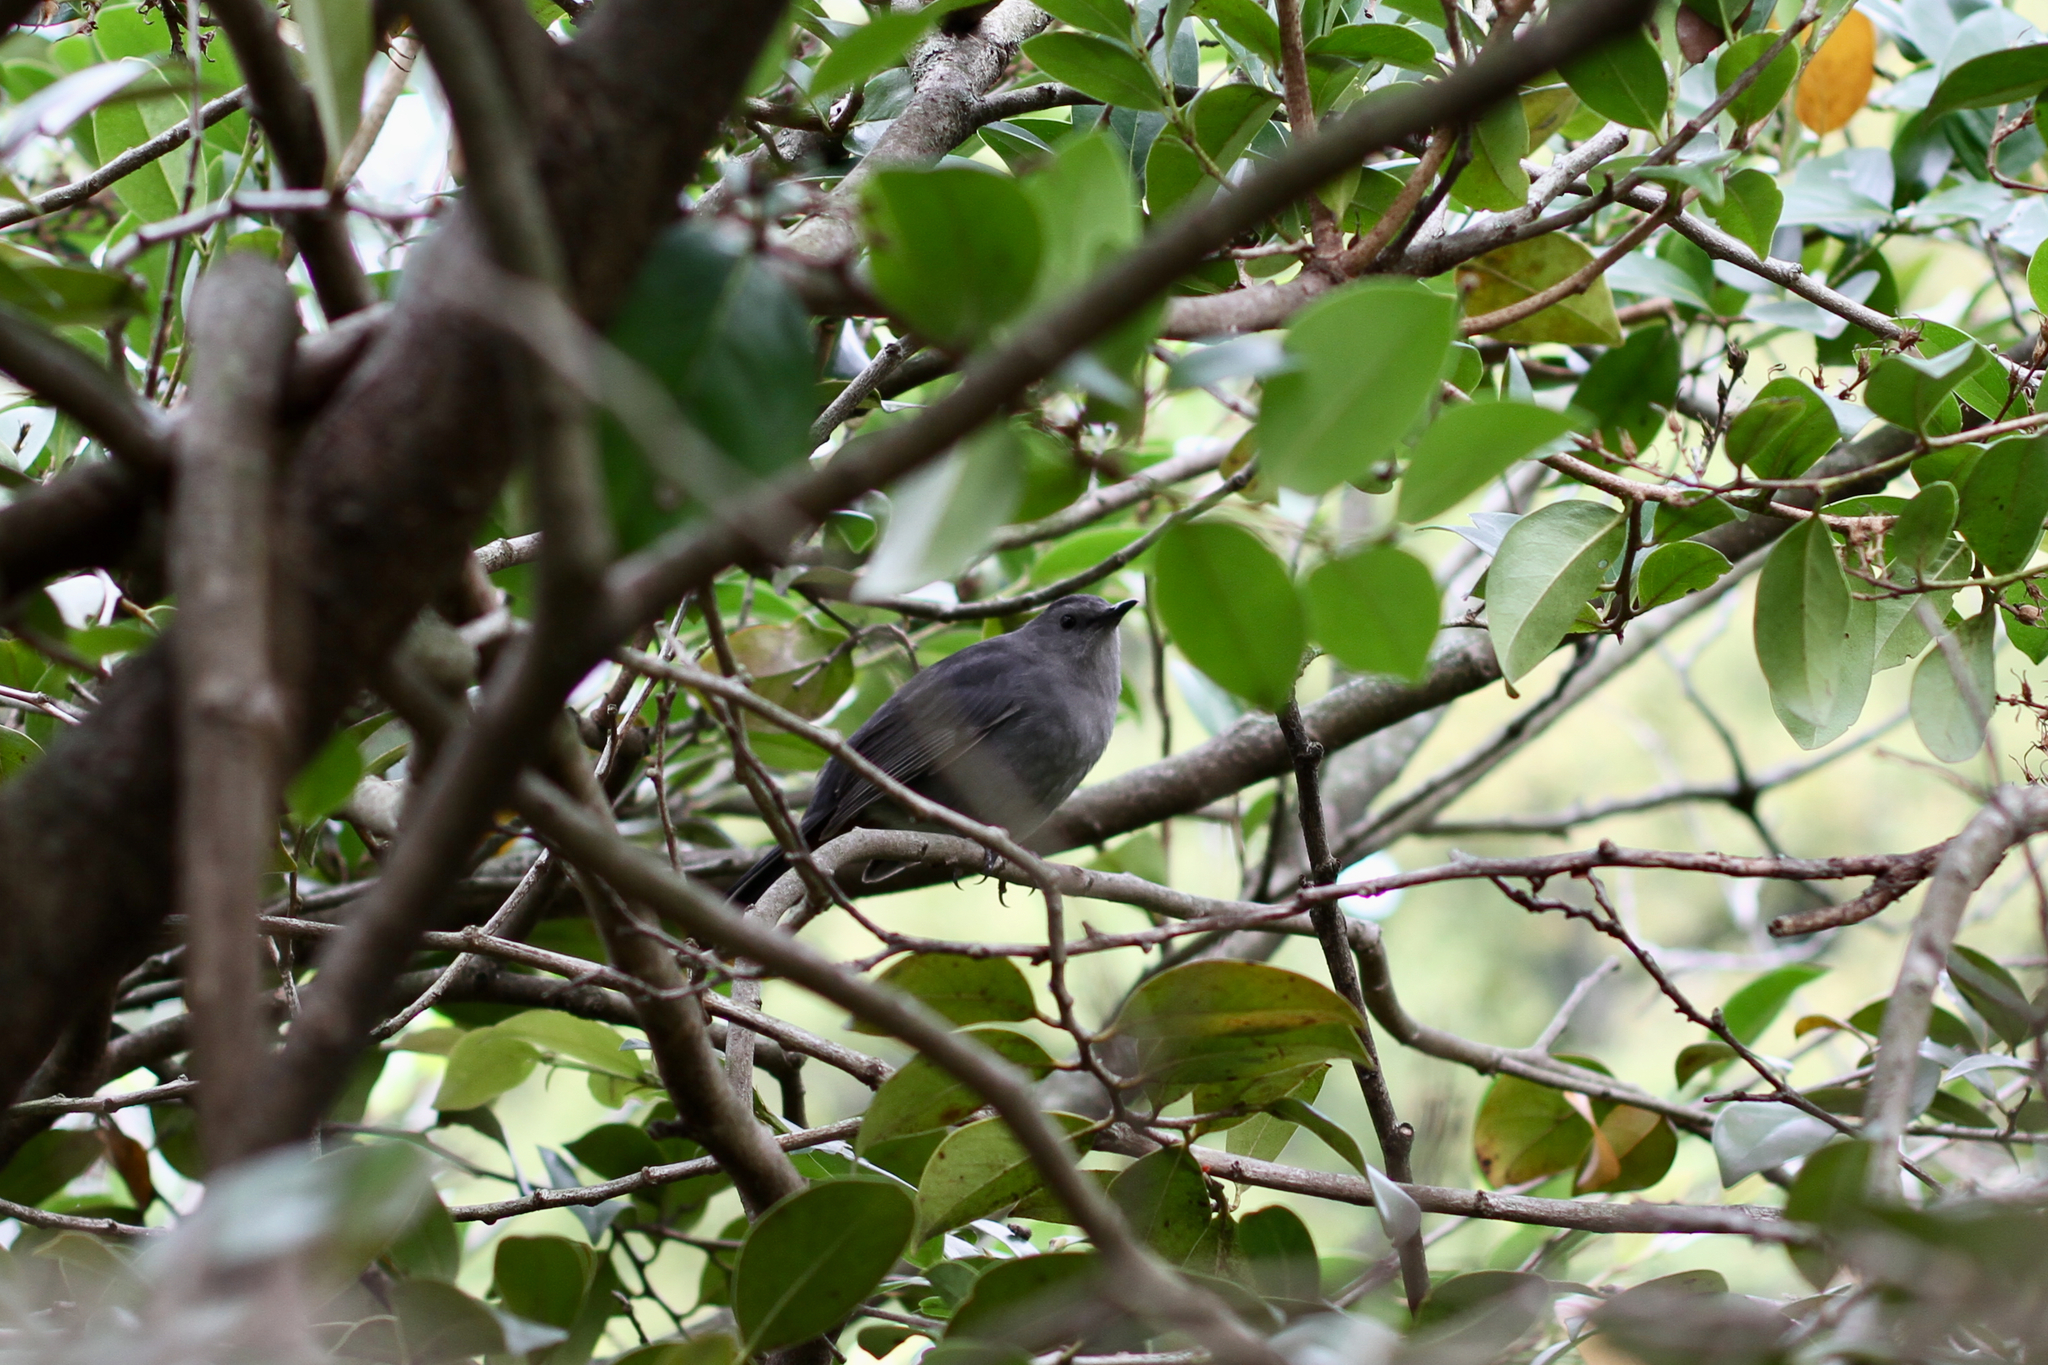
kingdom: Animalia
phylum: Chordata
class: Aves
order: Passeriformes
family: Mimidae
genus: Dumetella
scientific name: Dumetella carolinensis
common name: Gray catbird
